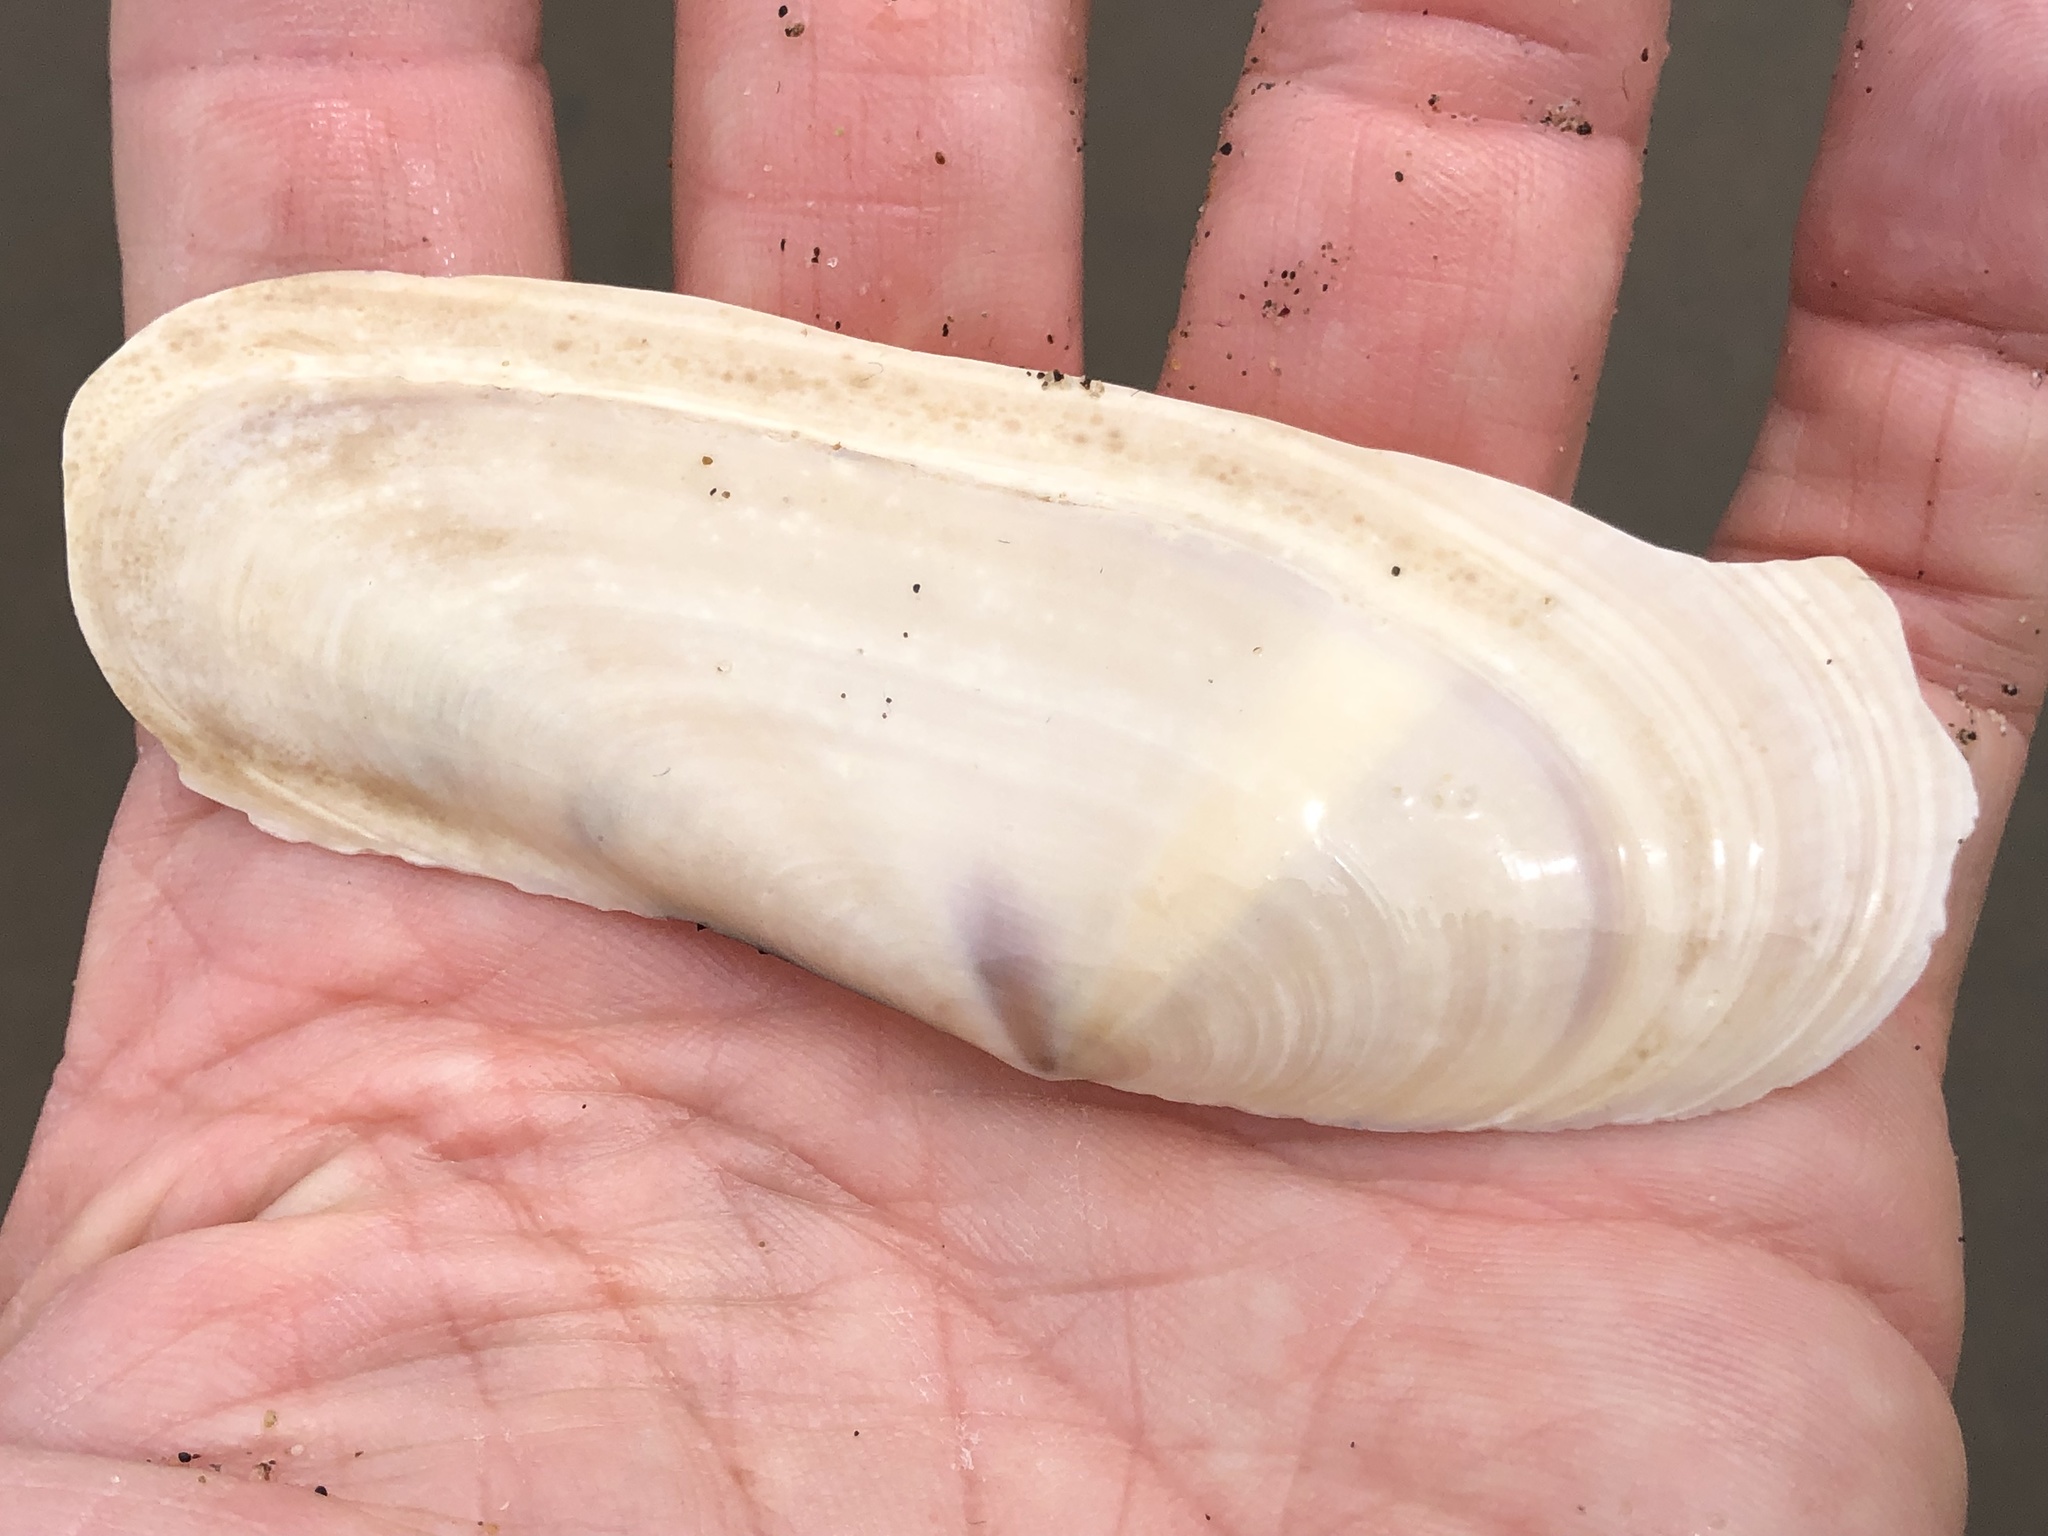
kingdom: Animalia
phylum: Mollusca
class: Bivalvia
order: Adapedonta
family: Pharidae
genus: Siliqua
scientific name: Siliqua patula
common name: Pacific razor clam
